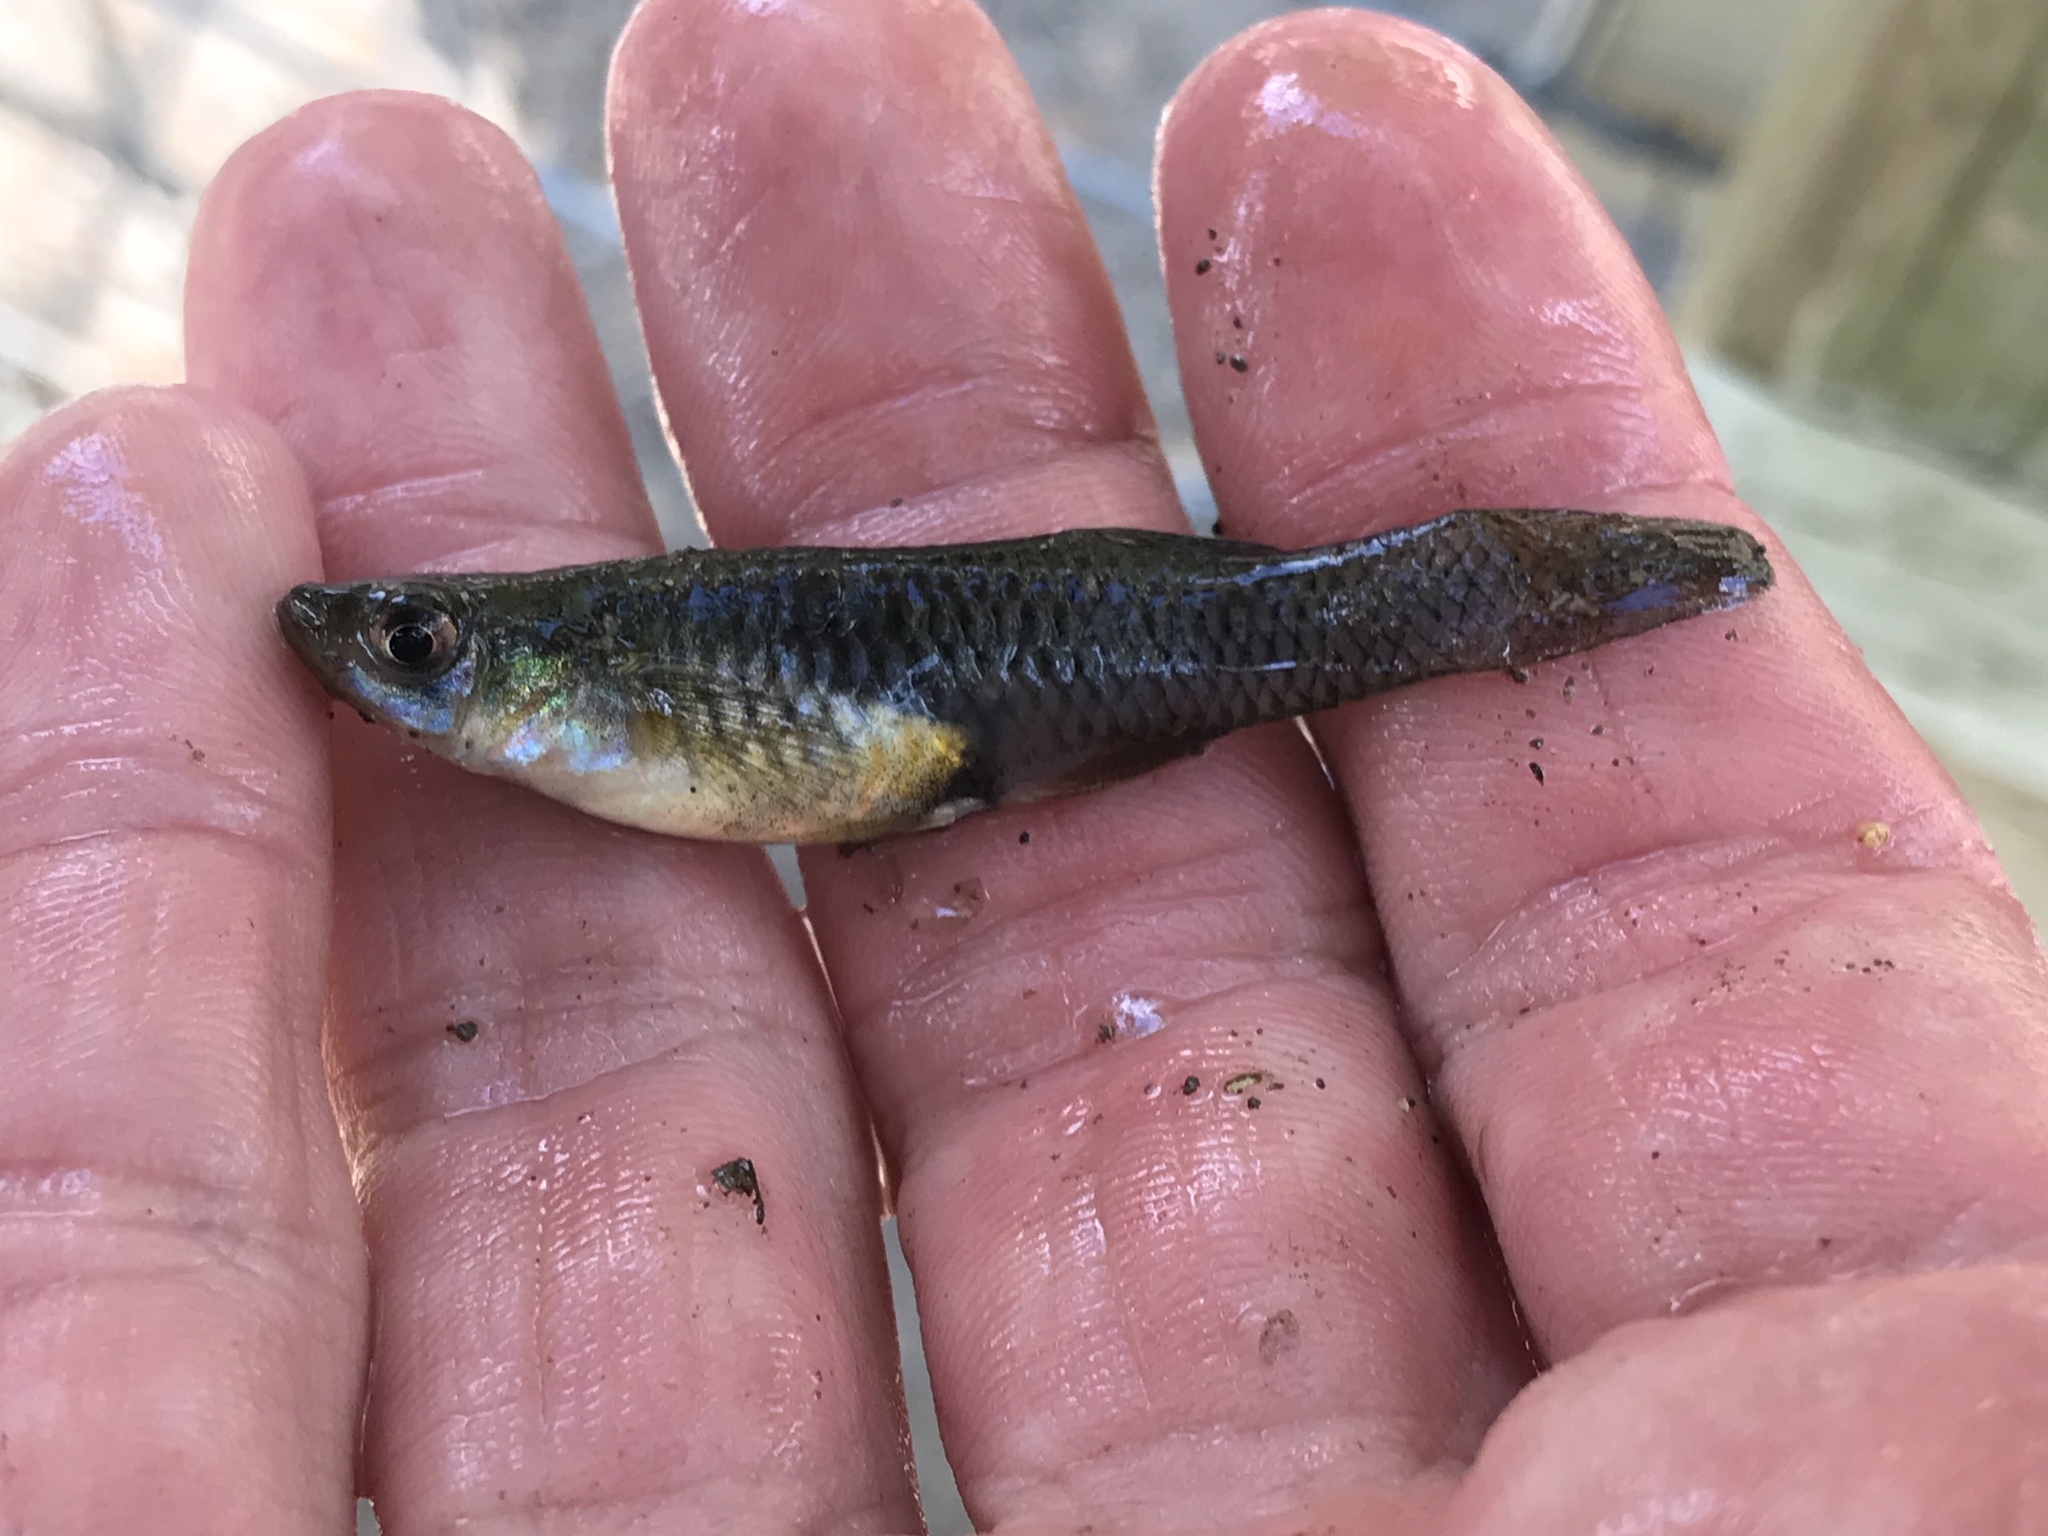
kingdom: Animalia
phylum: Chordata
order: Cyprinodontiformes
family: Poeciliidae
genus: Gambusia
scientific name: Gambusia affinis
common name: Mosquitofish
